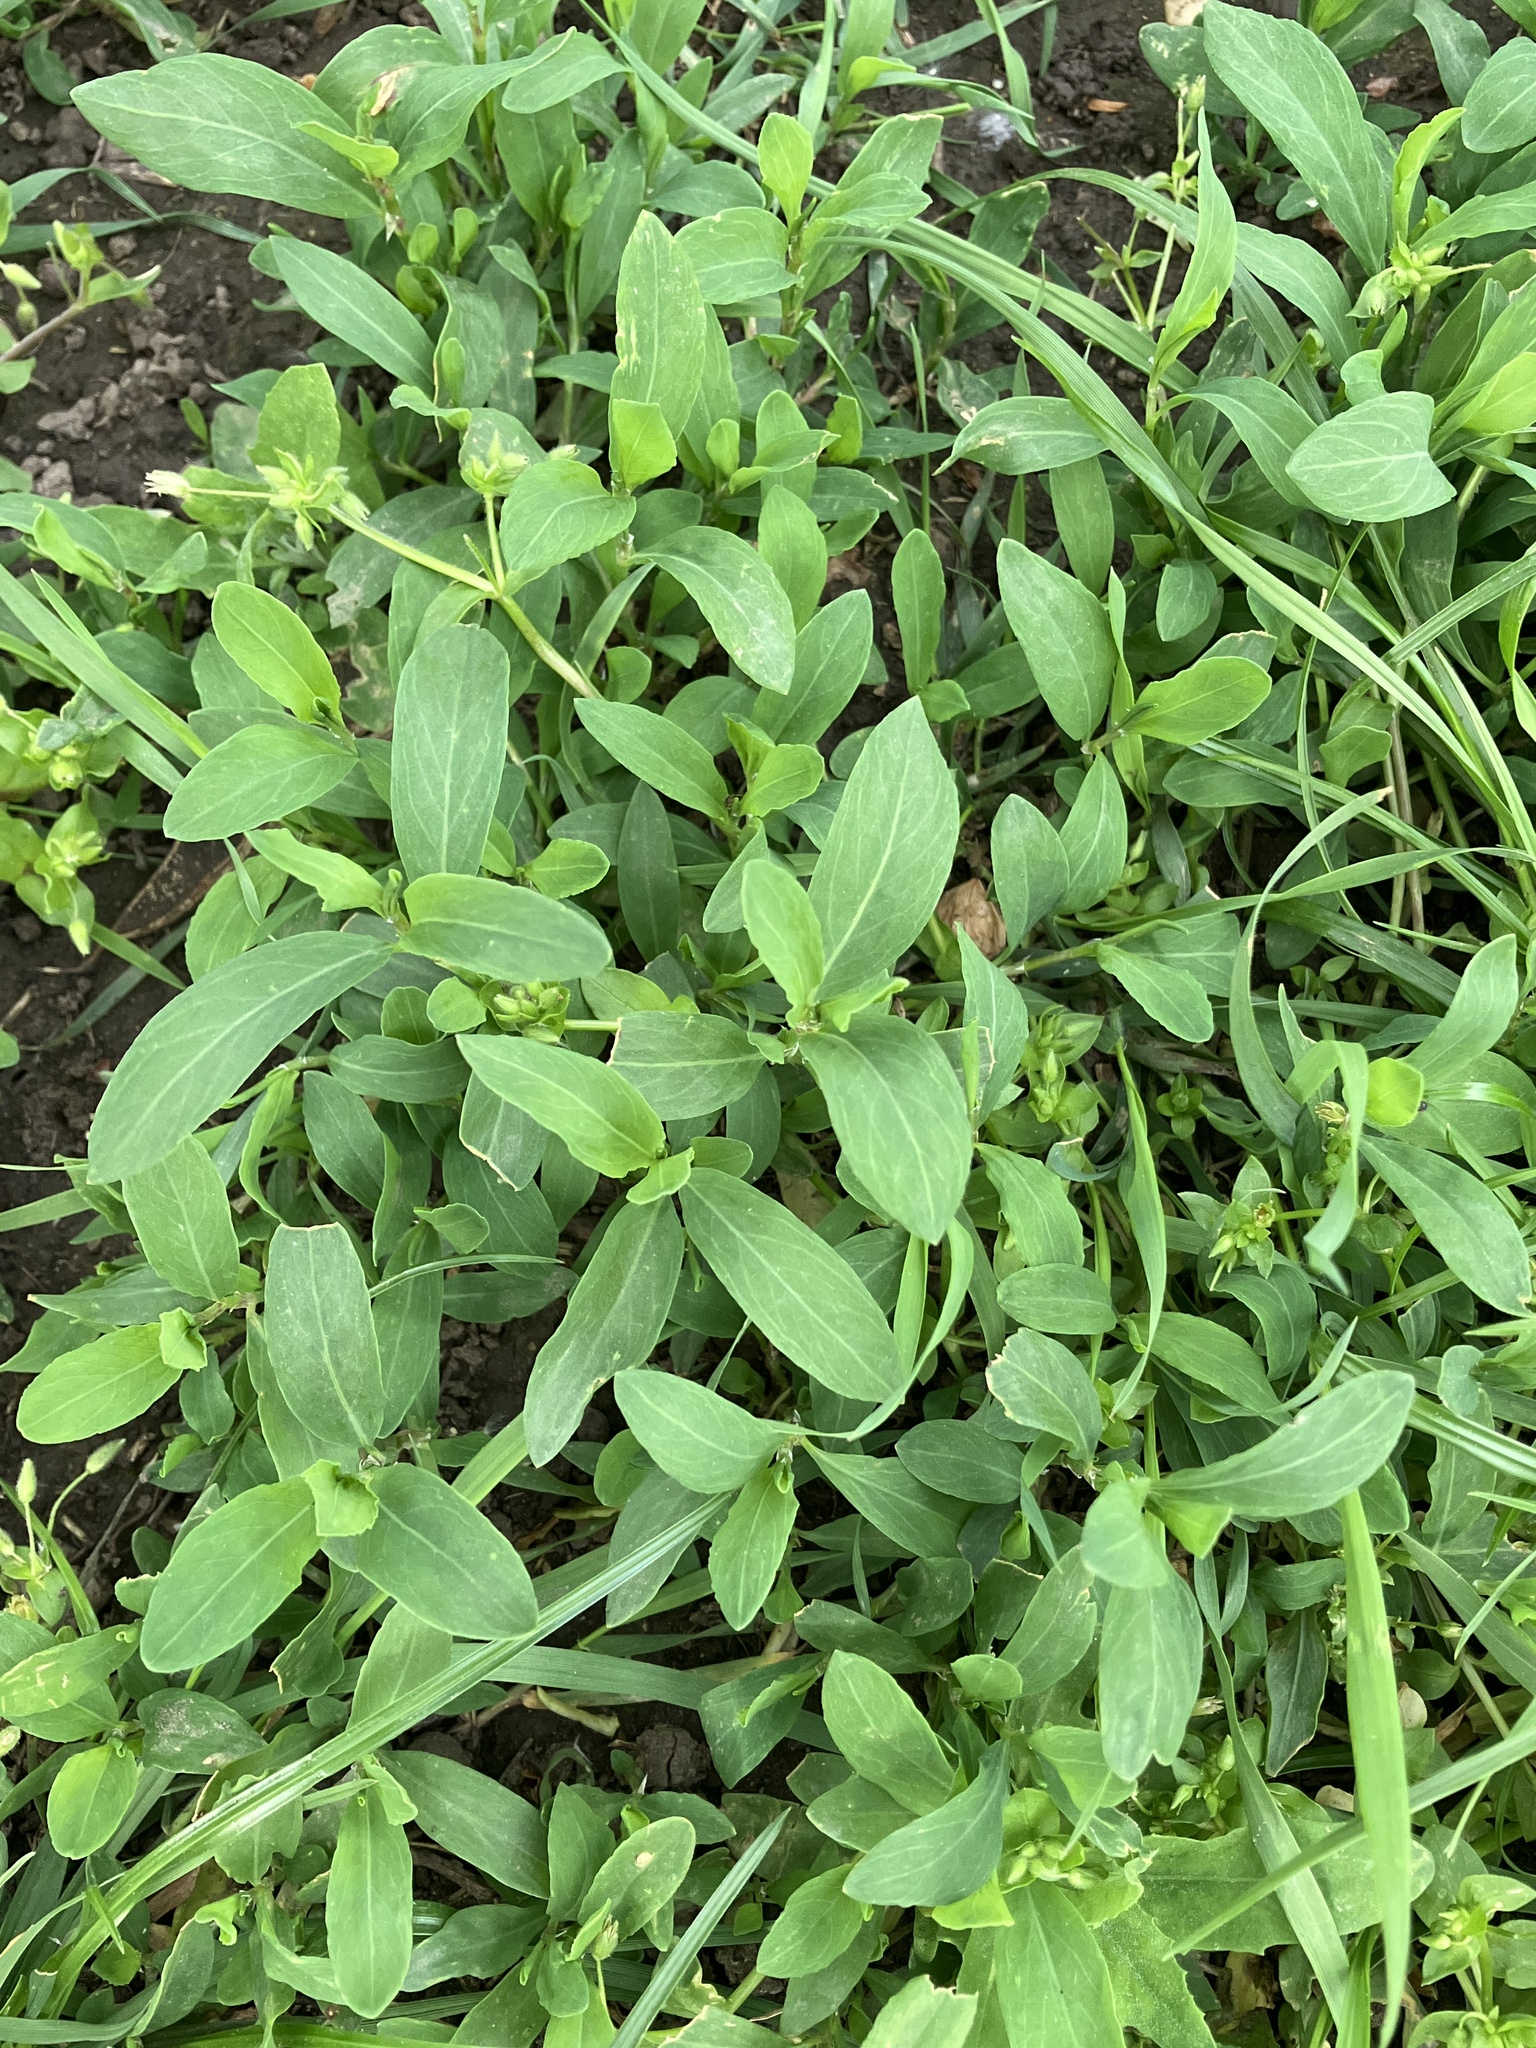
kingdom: Plantae
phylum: Tracheophyta
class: Magnoliopsida
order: Caryophyllales
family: Polygonaceae
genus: Polygonum
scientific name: Polygonum aviculare
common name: Prostrate knotweed
